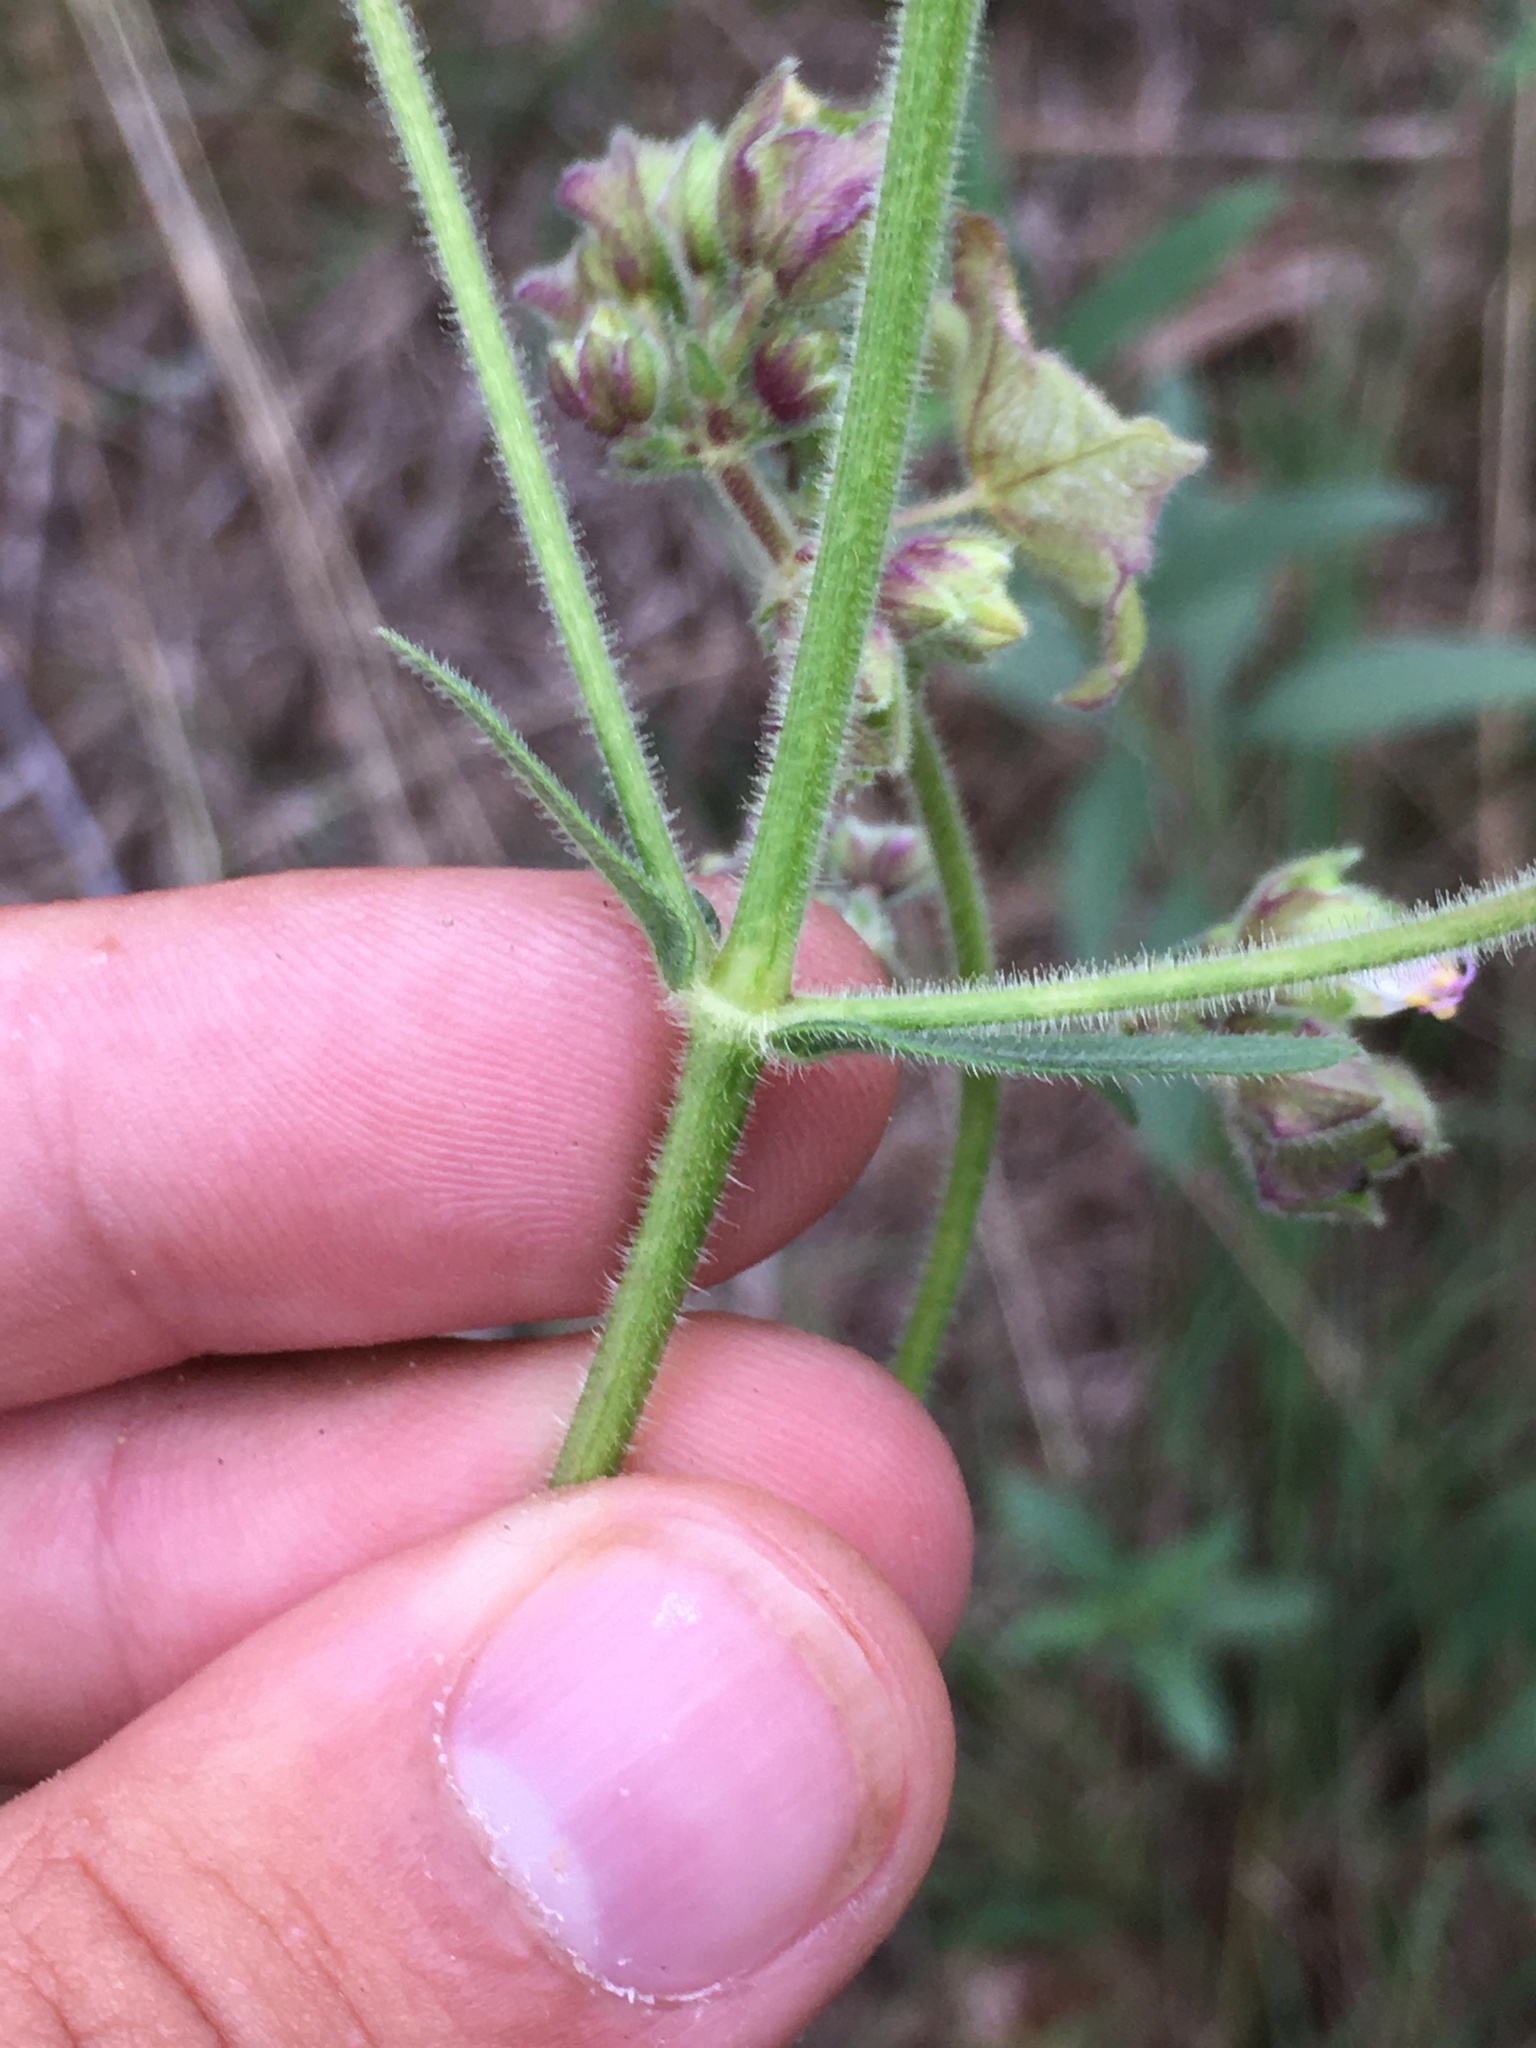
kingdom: Plantae
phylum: Tracheophyta
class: Magnoliopsida
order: Caryophyllales
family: Nyctaginaceae
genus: Mirabilis
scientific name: Mirabilis albida
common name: Hairy four-o'clock
